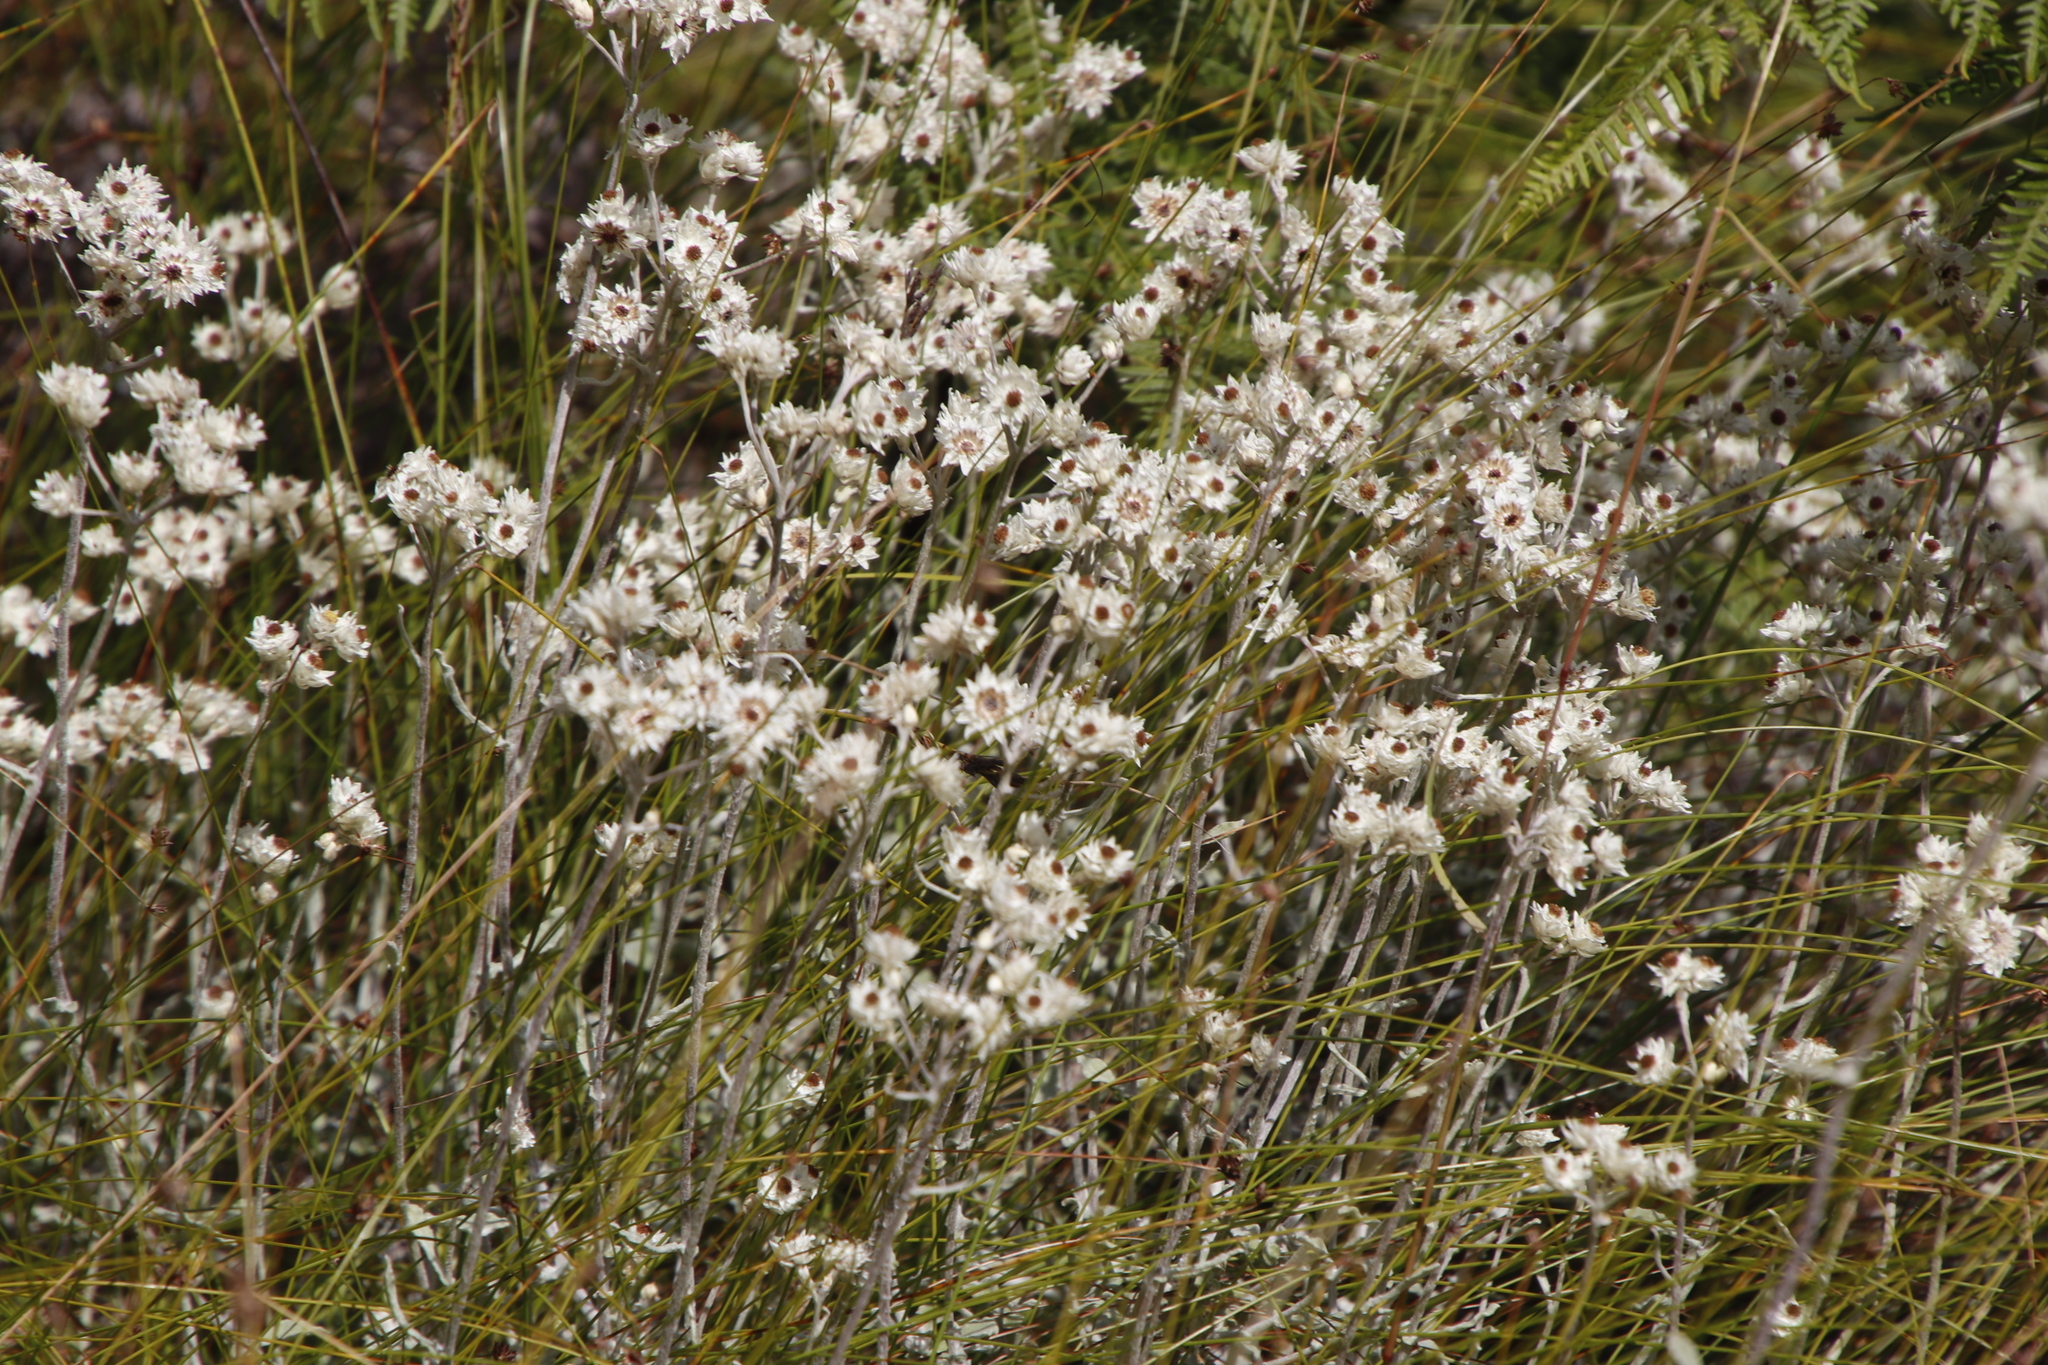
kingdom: Plantae
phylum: Tracheophyta
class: Magnoliopsida
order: Asterales
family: Asteraceae
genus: Helichrysum
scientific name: Helichrysum pandurifolium
